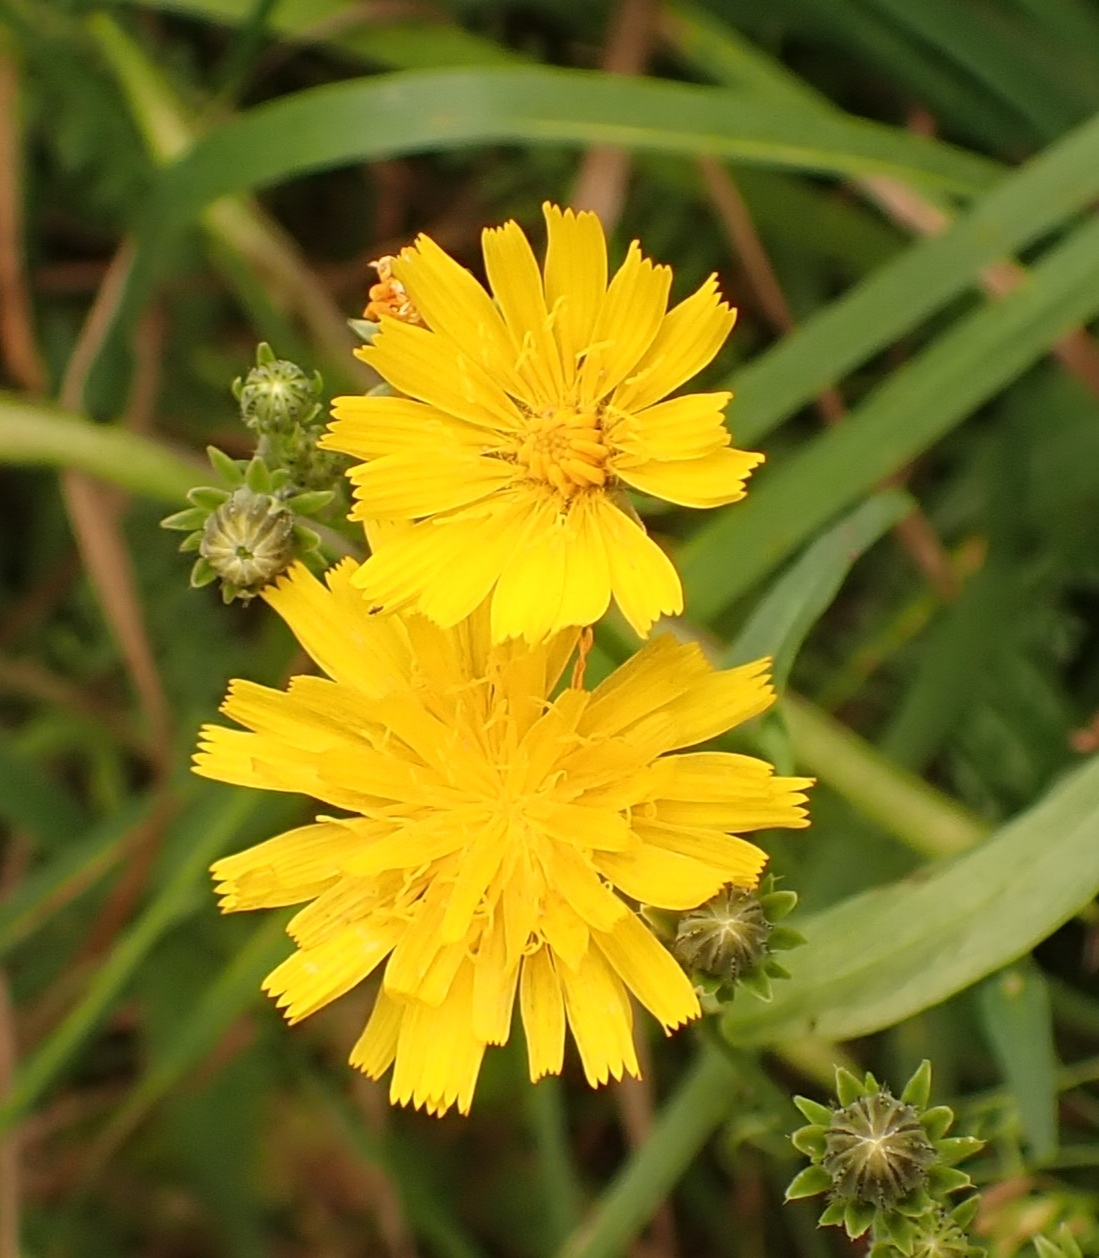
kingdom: Plantae
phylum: Tracheophyta
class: Magnoliopsida
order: Asterales
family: Asteraceae
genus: Picris
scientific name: Picris hieracioides
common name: Hawkweed oxtongue
